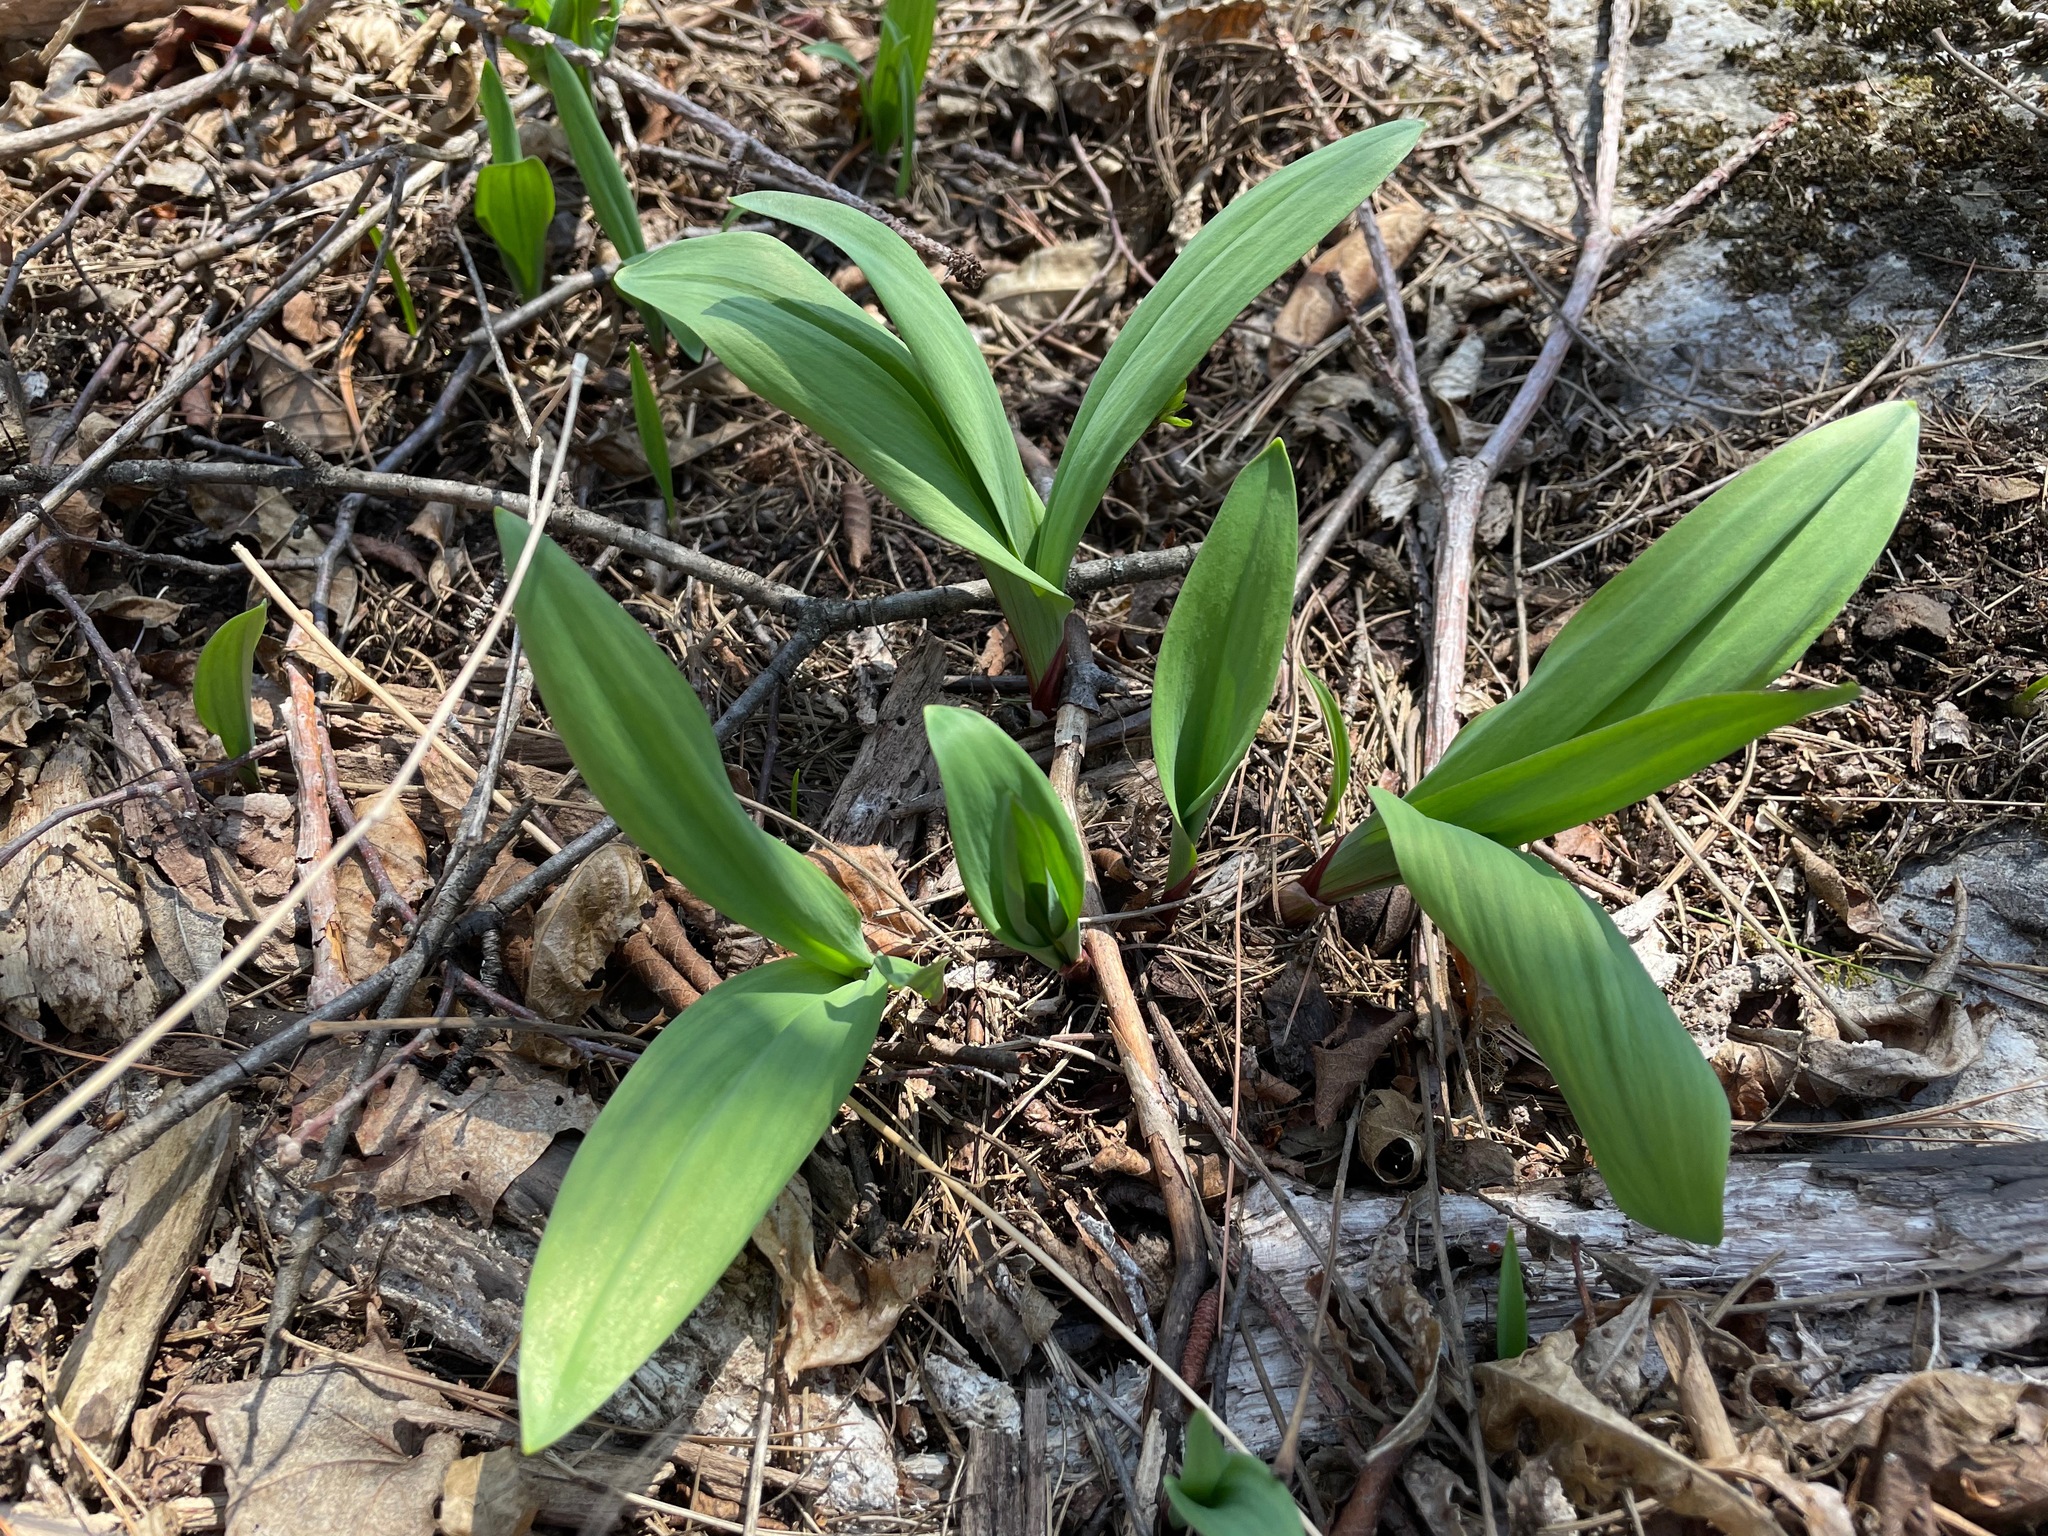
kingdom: Plantae
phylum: Tracheophyta
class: Liliopsida
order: Asparagales
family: Amaryllidaceae
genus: Allium
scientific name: Allium tricoccum
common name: Ramp
